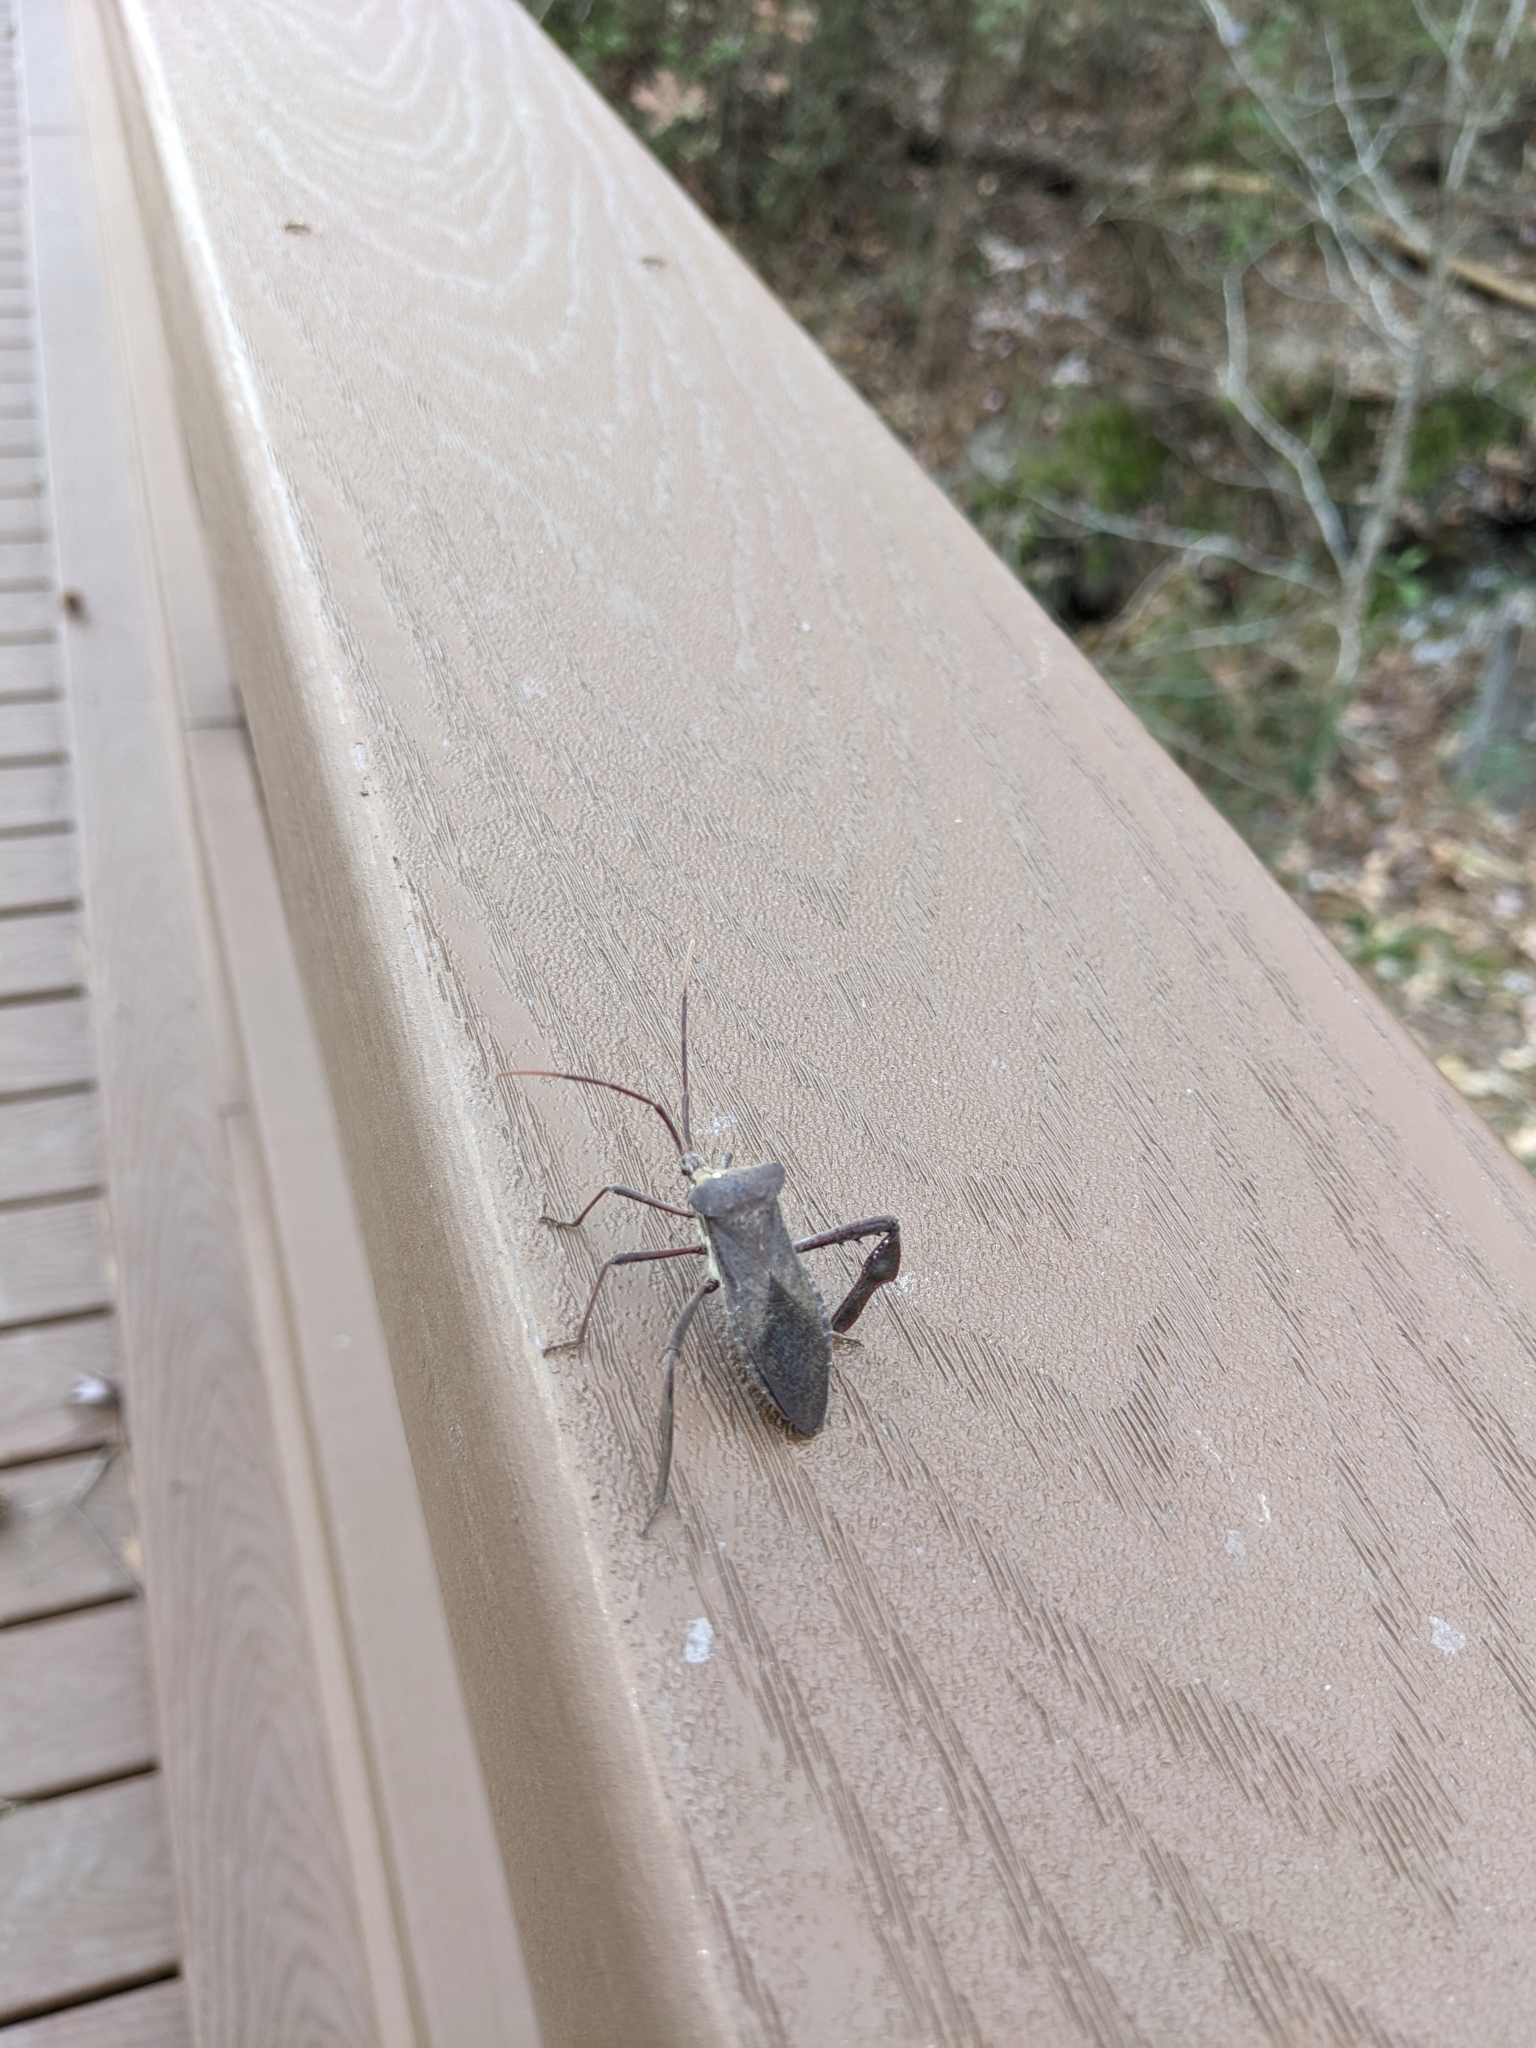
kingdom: Animalia
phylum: Arthropoda
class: Insecta
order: Hemiptera
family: Coreidae
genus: Acanthocephala
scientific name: Acanthocephala declivis
